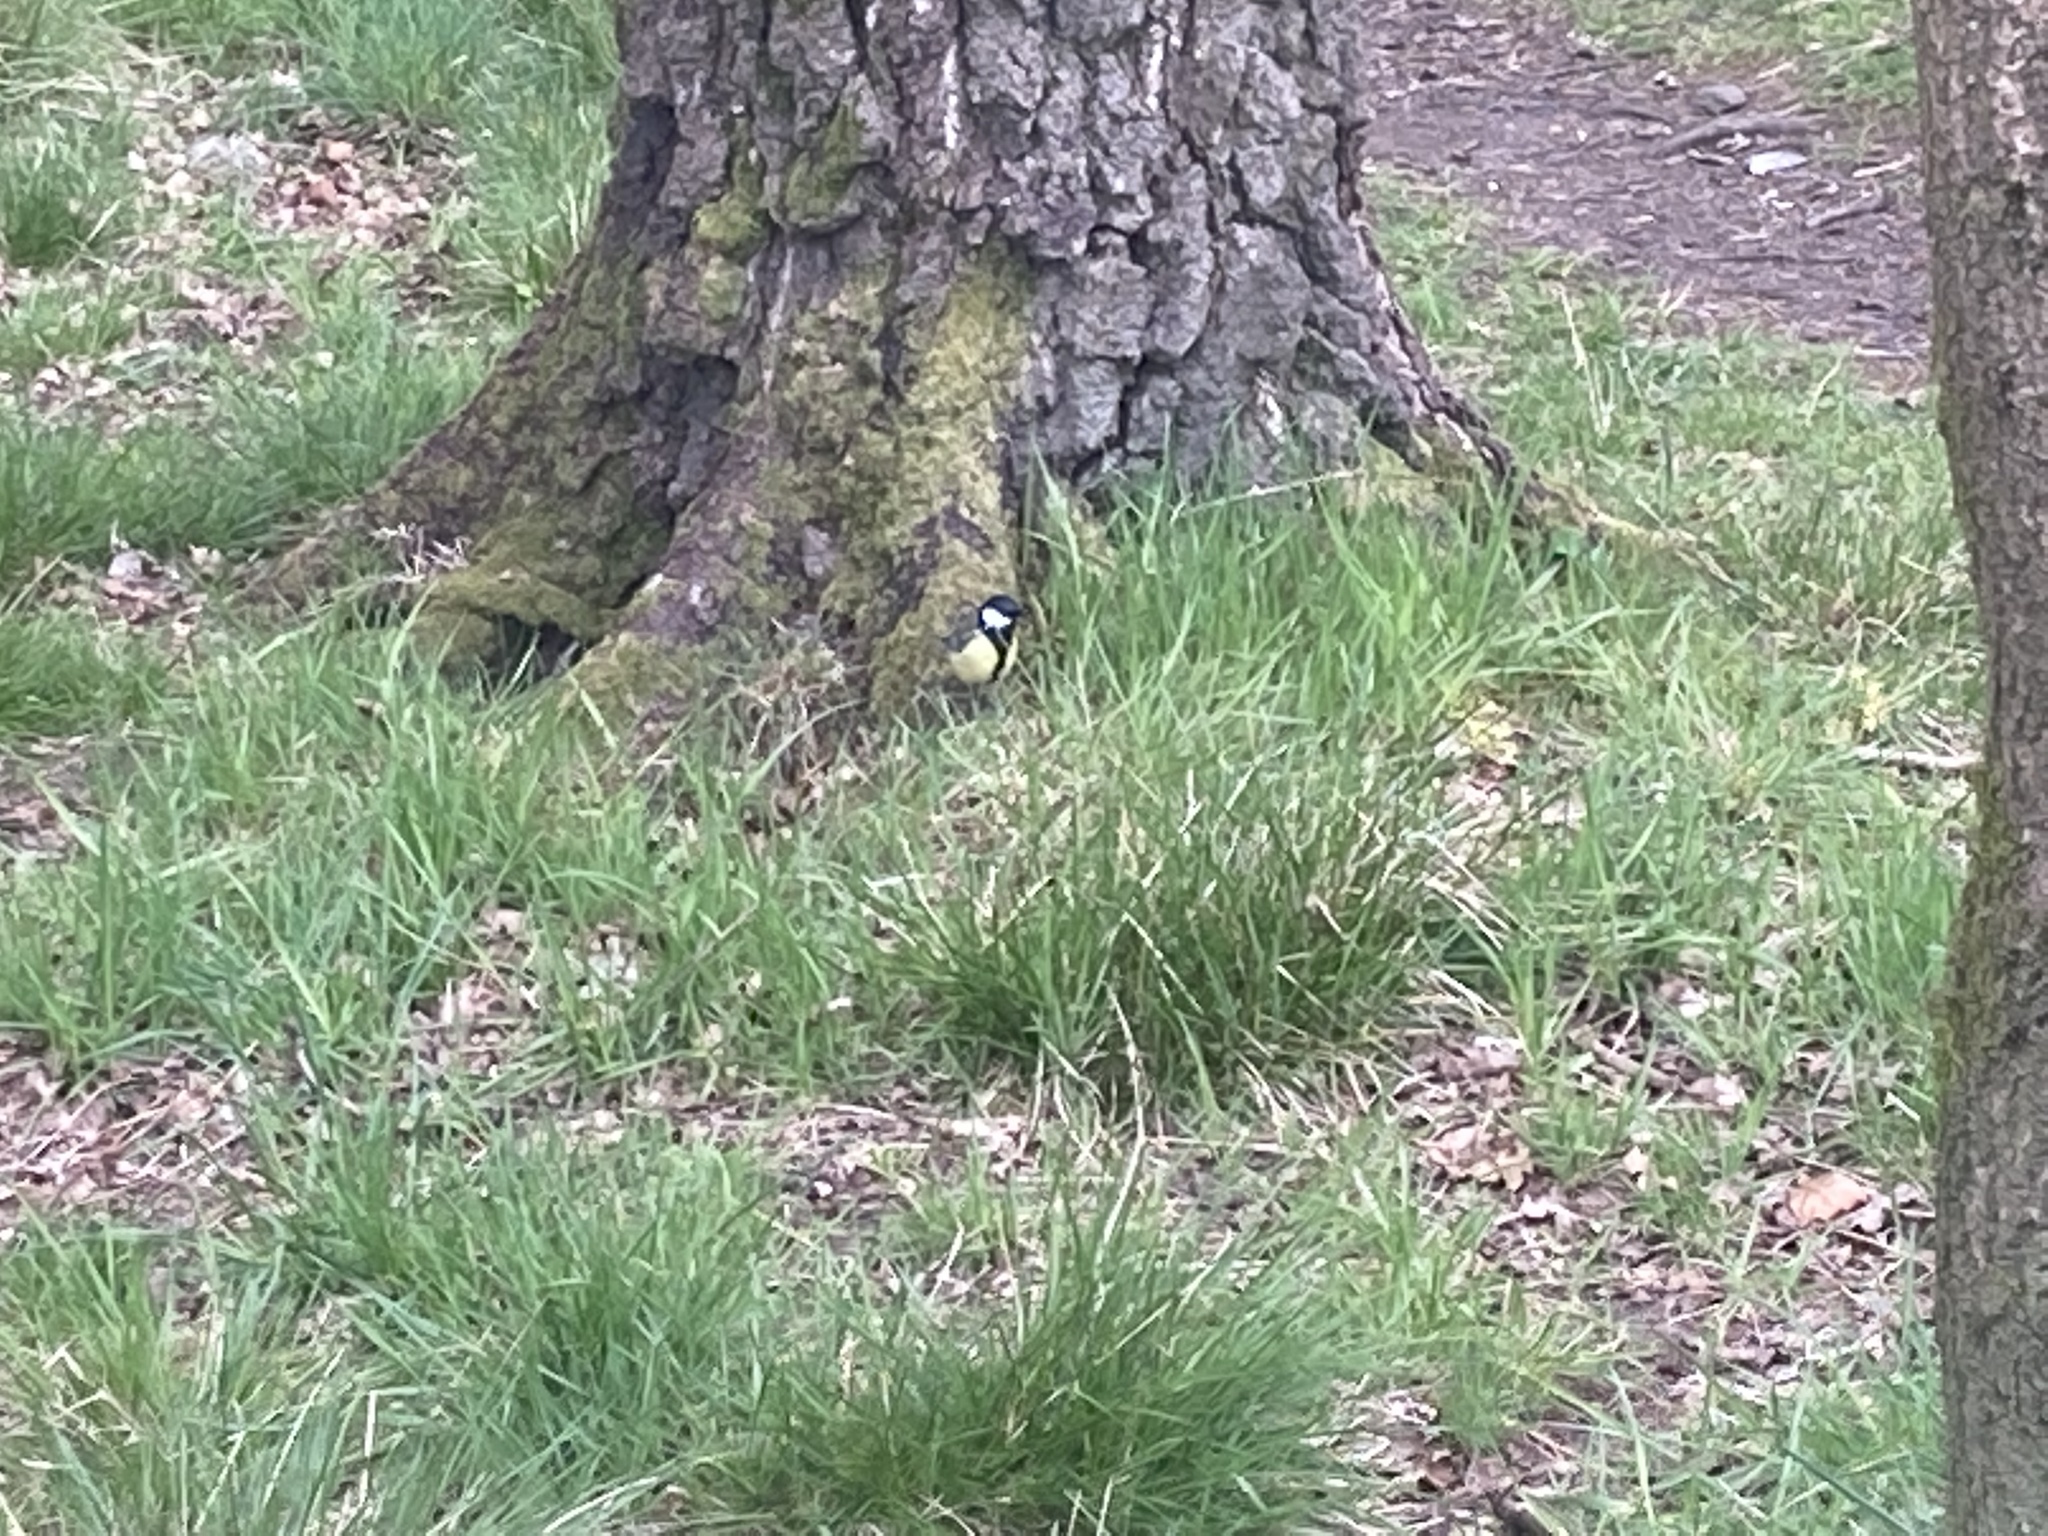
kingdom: Animalia
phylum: Chordata
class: Aves
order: Passeriformes
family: Paridae
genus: Parus
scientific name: Parus major
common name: Great tit
